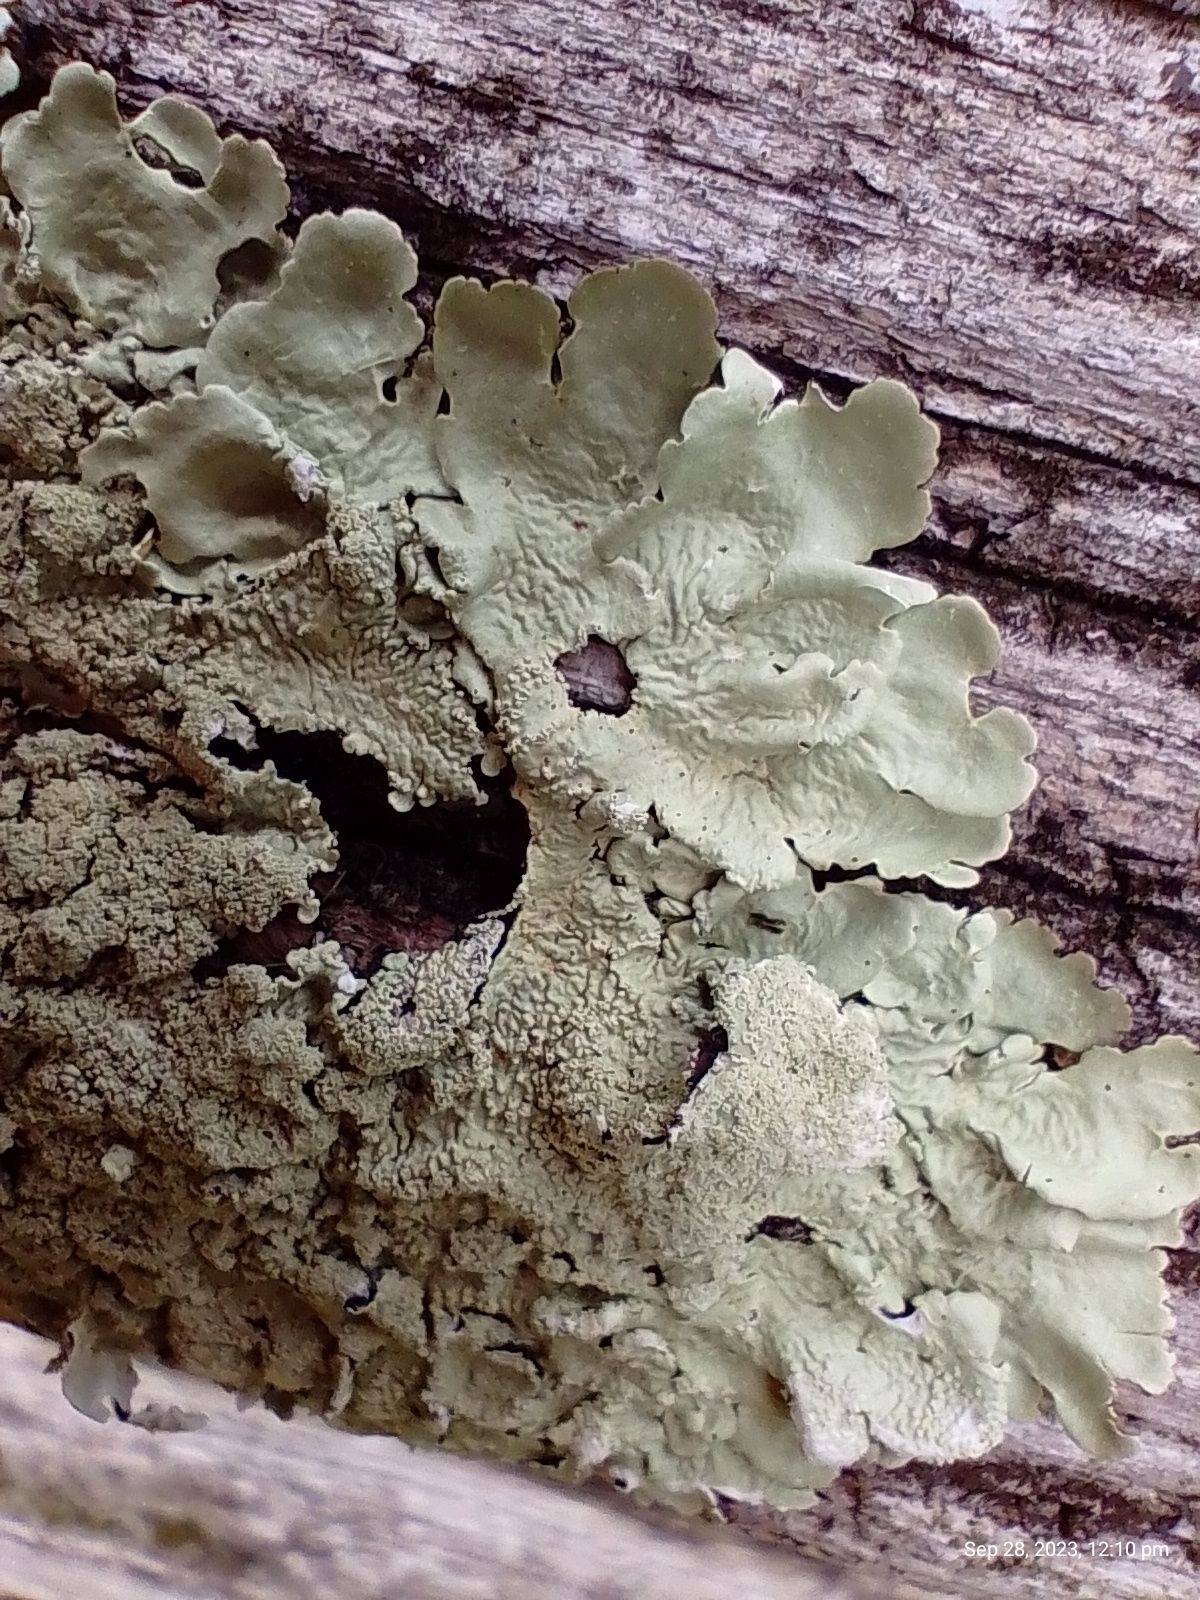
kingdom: Fungi
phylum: Ascomycota
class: Lecanoromycetes
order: Lecanorales
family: Parmeliaceae
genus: Flavoparmelia
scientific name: Flavoparmelia caperata
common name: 40-mile per hour lichen
